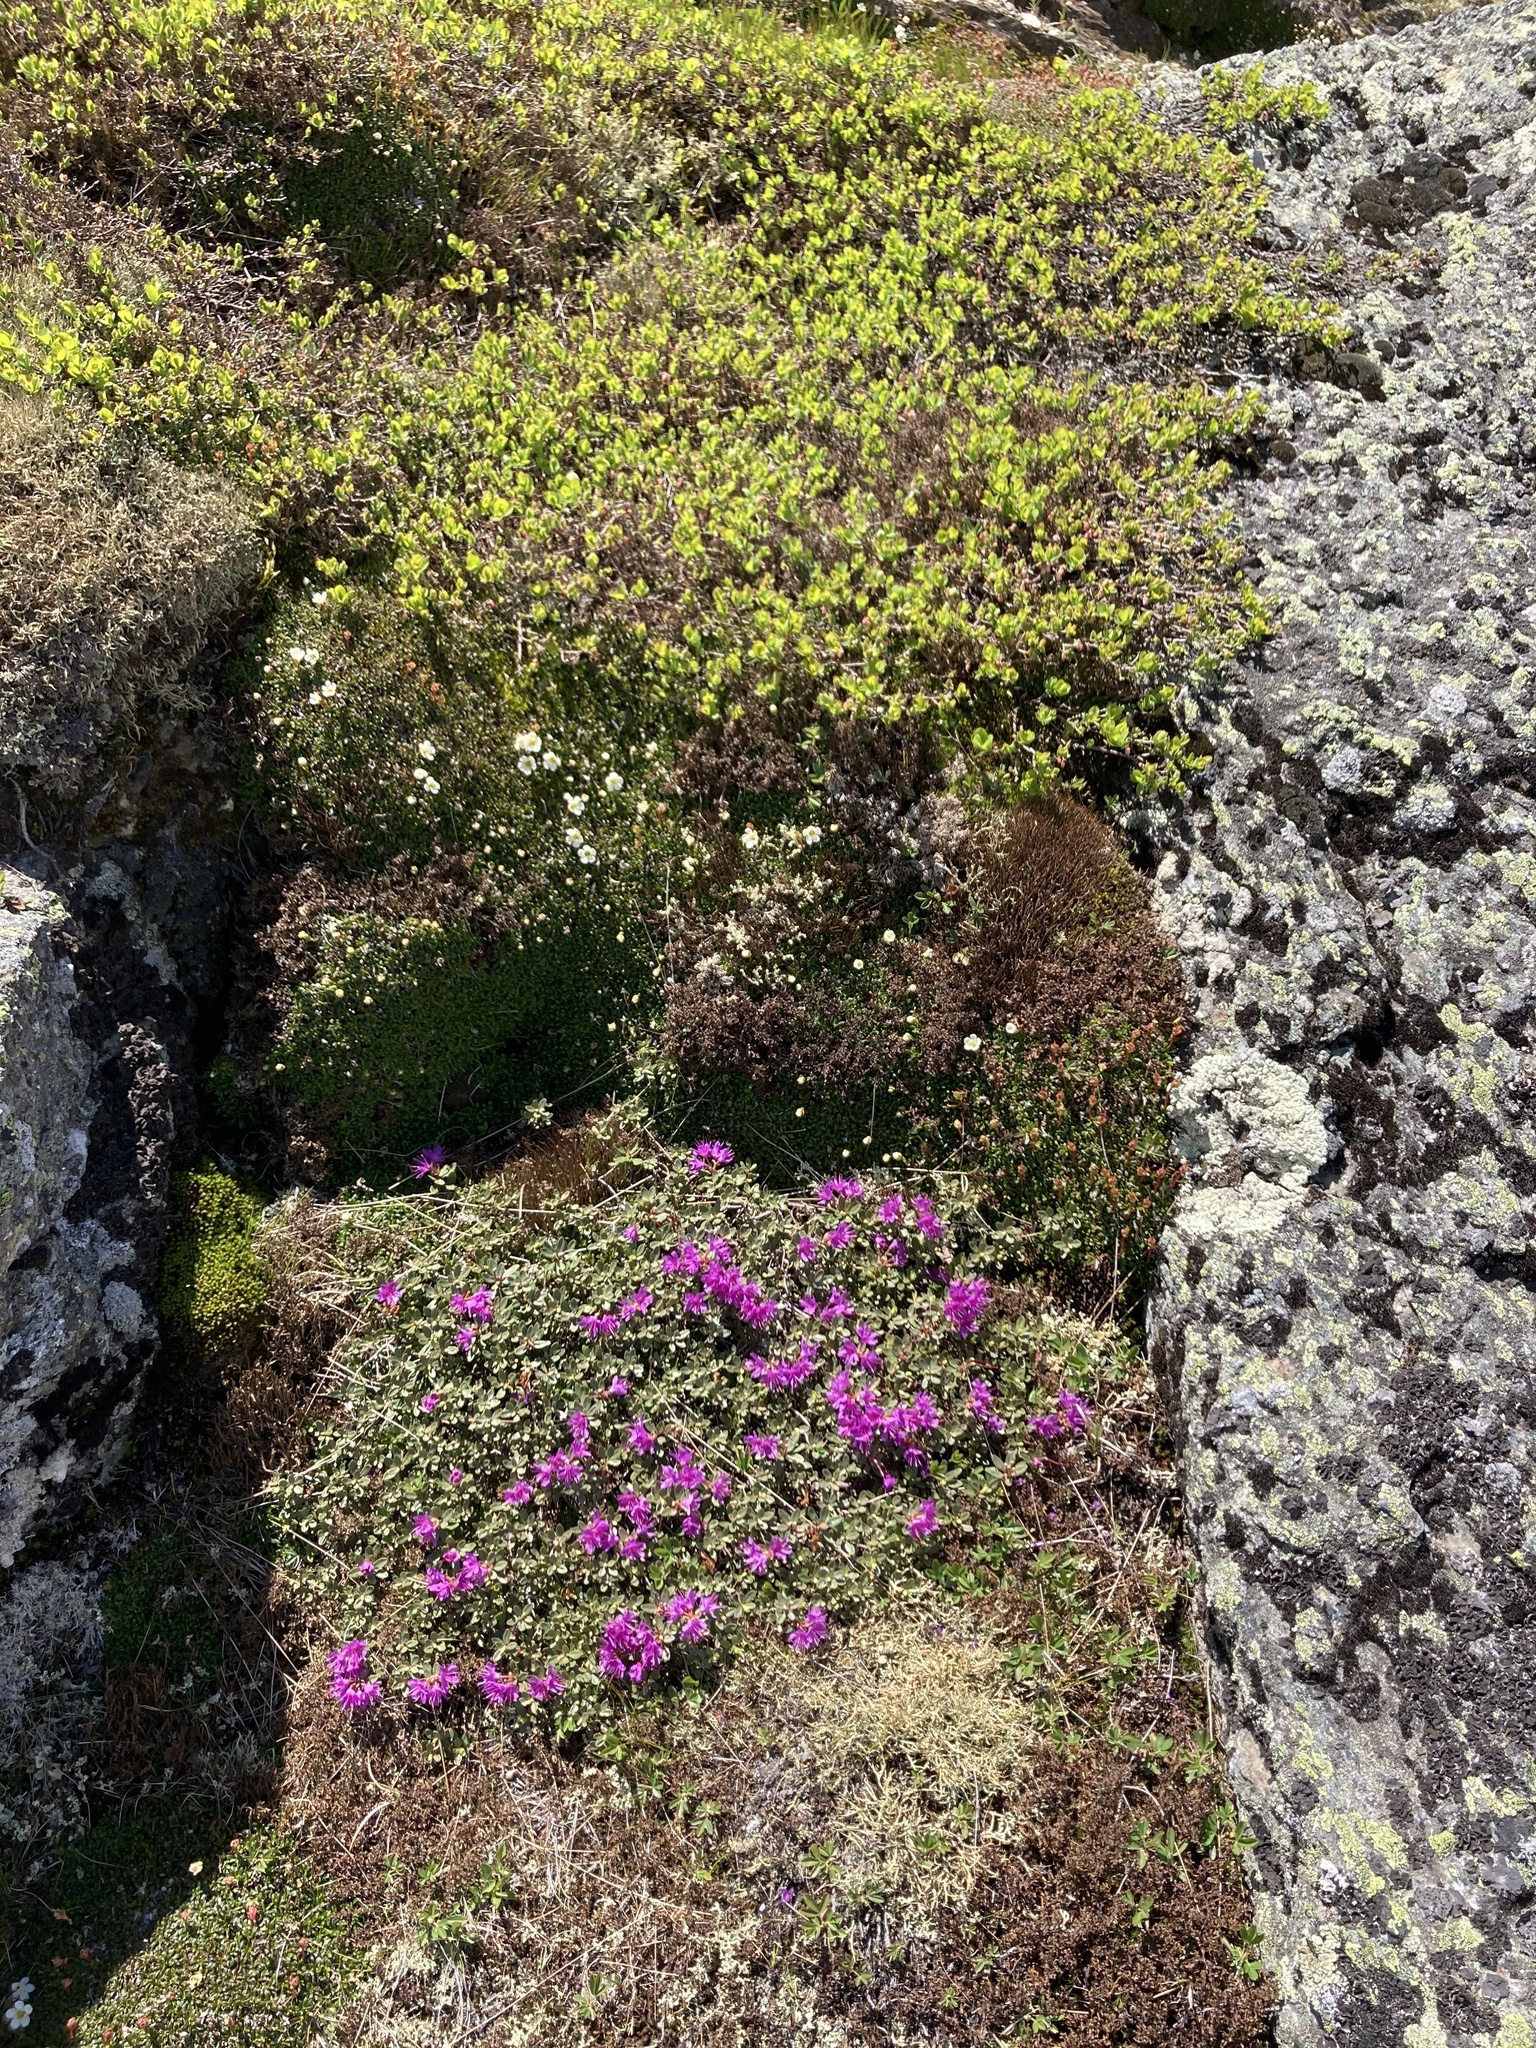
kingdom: Plantae
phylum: Tracheophyta
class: Magnoliopsida
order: Ericales
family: Ericaceae
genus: Rhododendron
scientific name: Rhododendron lapponicum
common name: Lapland rhododendron
